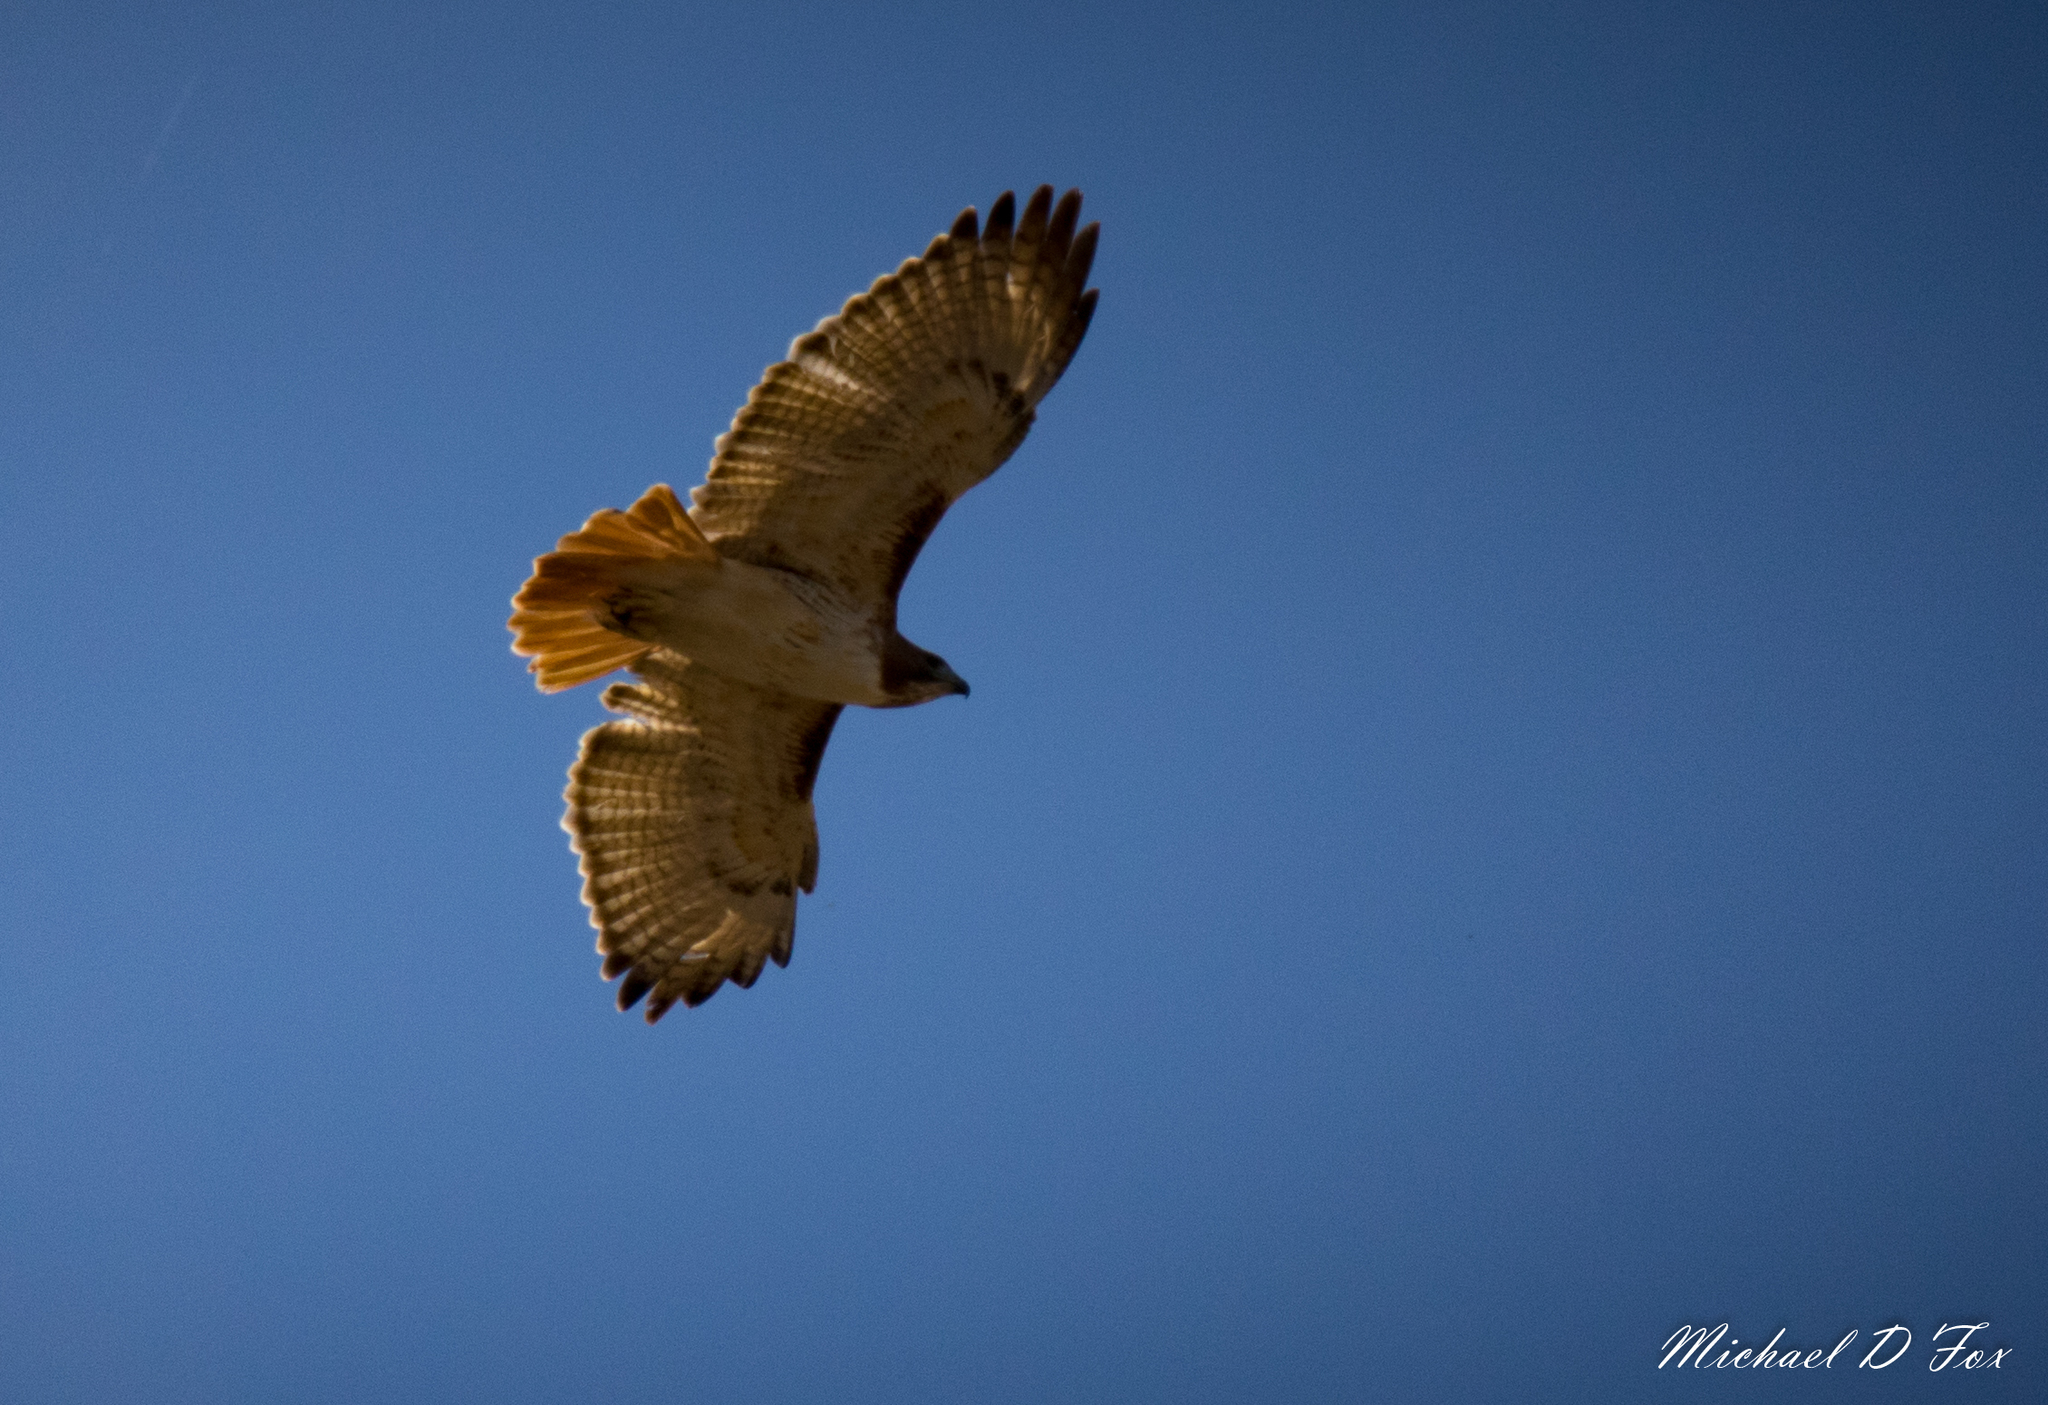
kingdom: Animalia
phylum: Chordata
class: Aves
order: Accipitriformes
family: Accipitridae
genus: Buteo
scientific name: Buteo jamaicensis
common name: Red-tailed hawk
